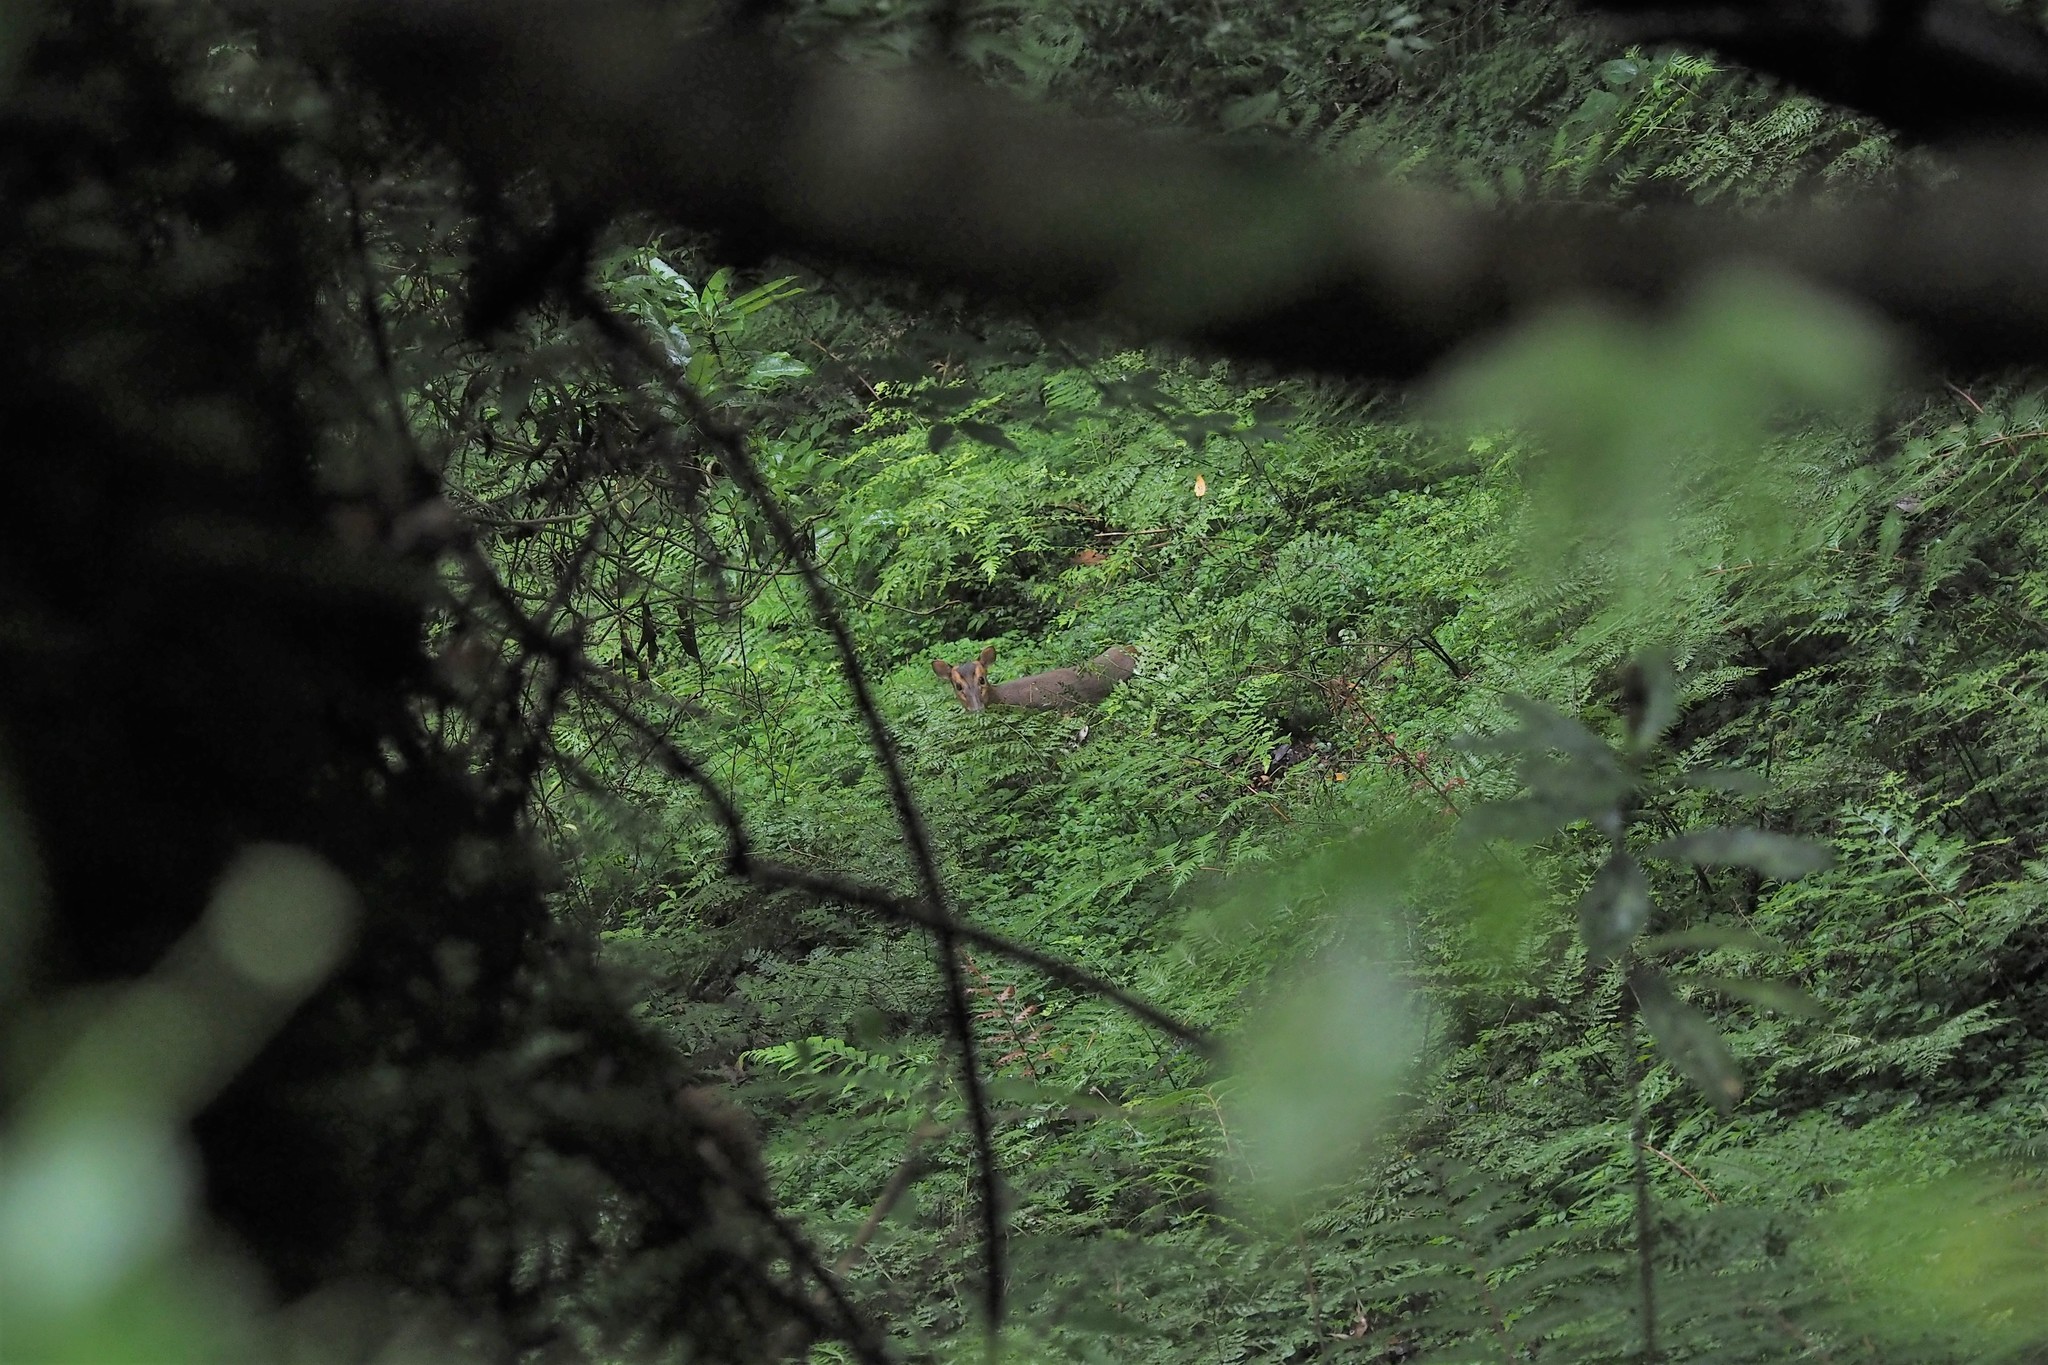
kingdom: Animalia
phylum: Chordata
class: Mammalia
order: Artiodactyla
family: Cervidae
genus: Muntiacus
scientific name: Muntiacus reevesi
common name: Reeves' muntjac
